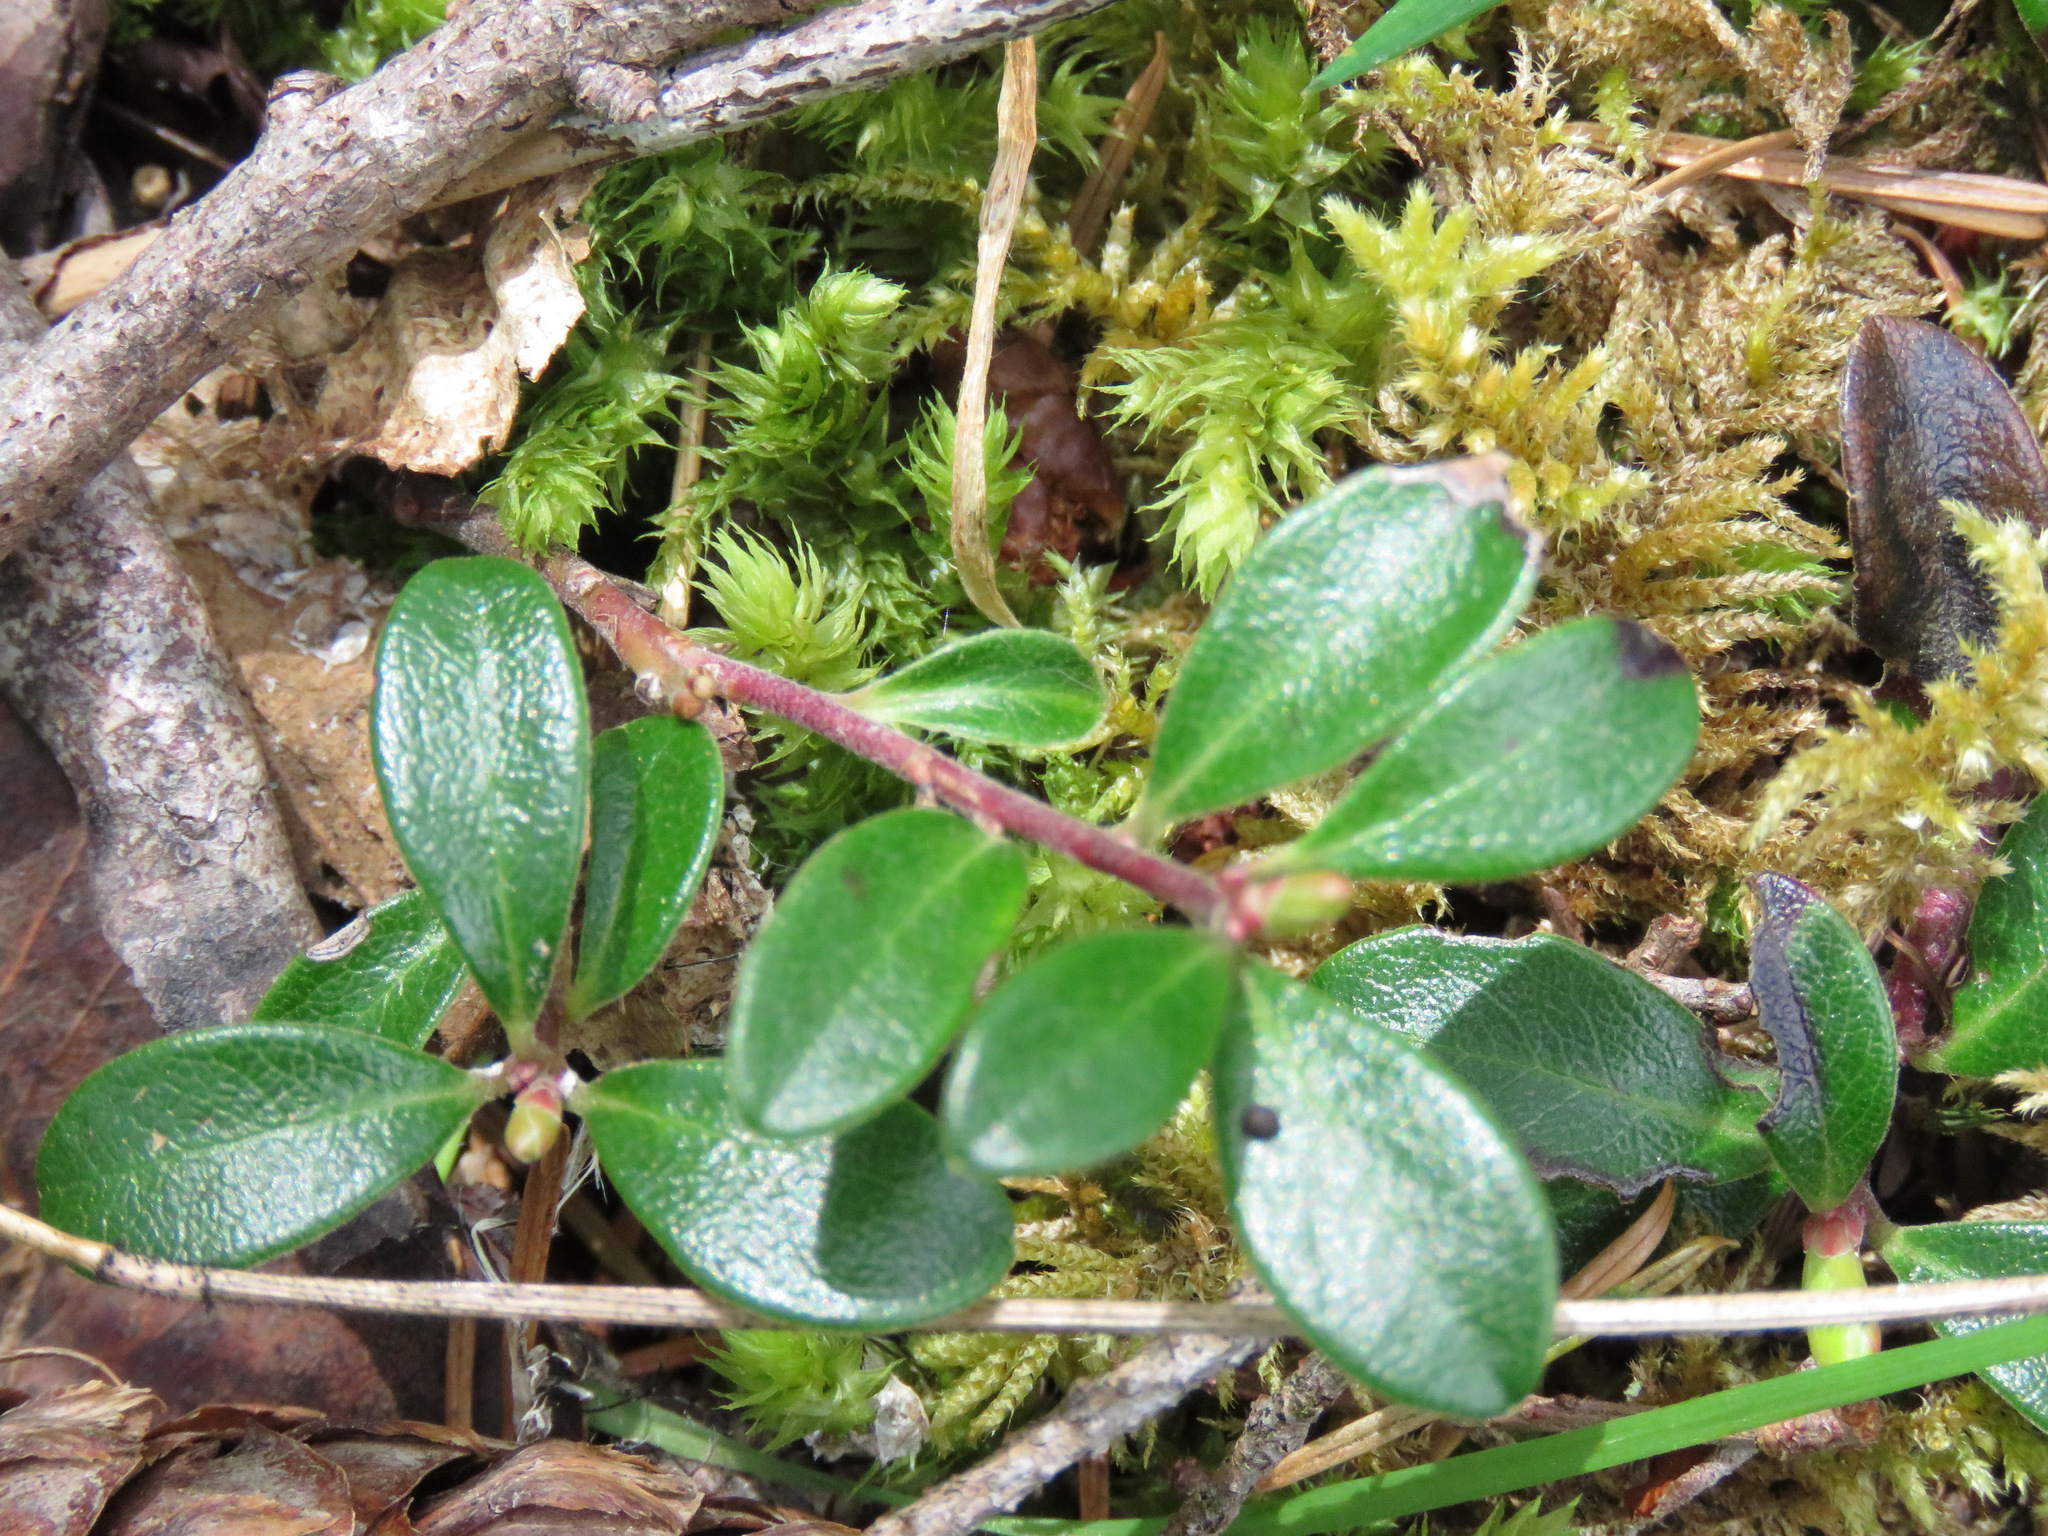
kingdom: Plantae
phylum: Tracheophyta
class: Magnoliopsida
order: Ericales
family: Ericaceae
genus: Arctostaphylos
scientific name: Arctostaphylos uva-ursi
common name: Bearberry
